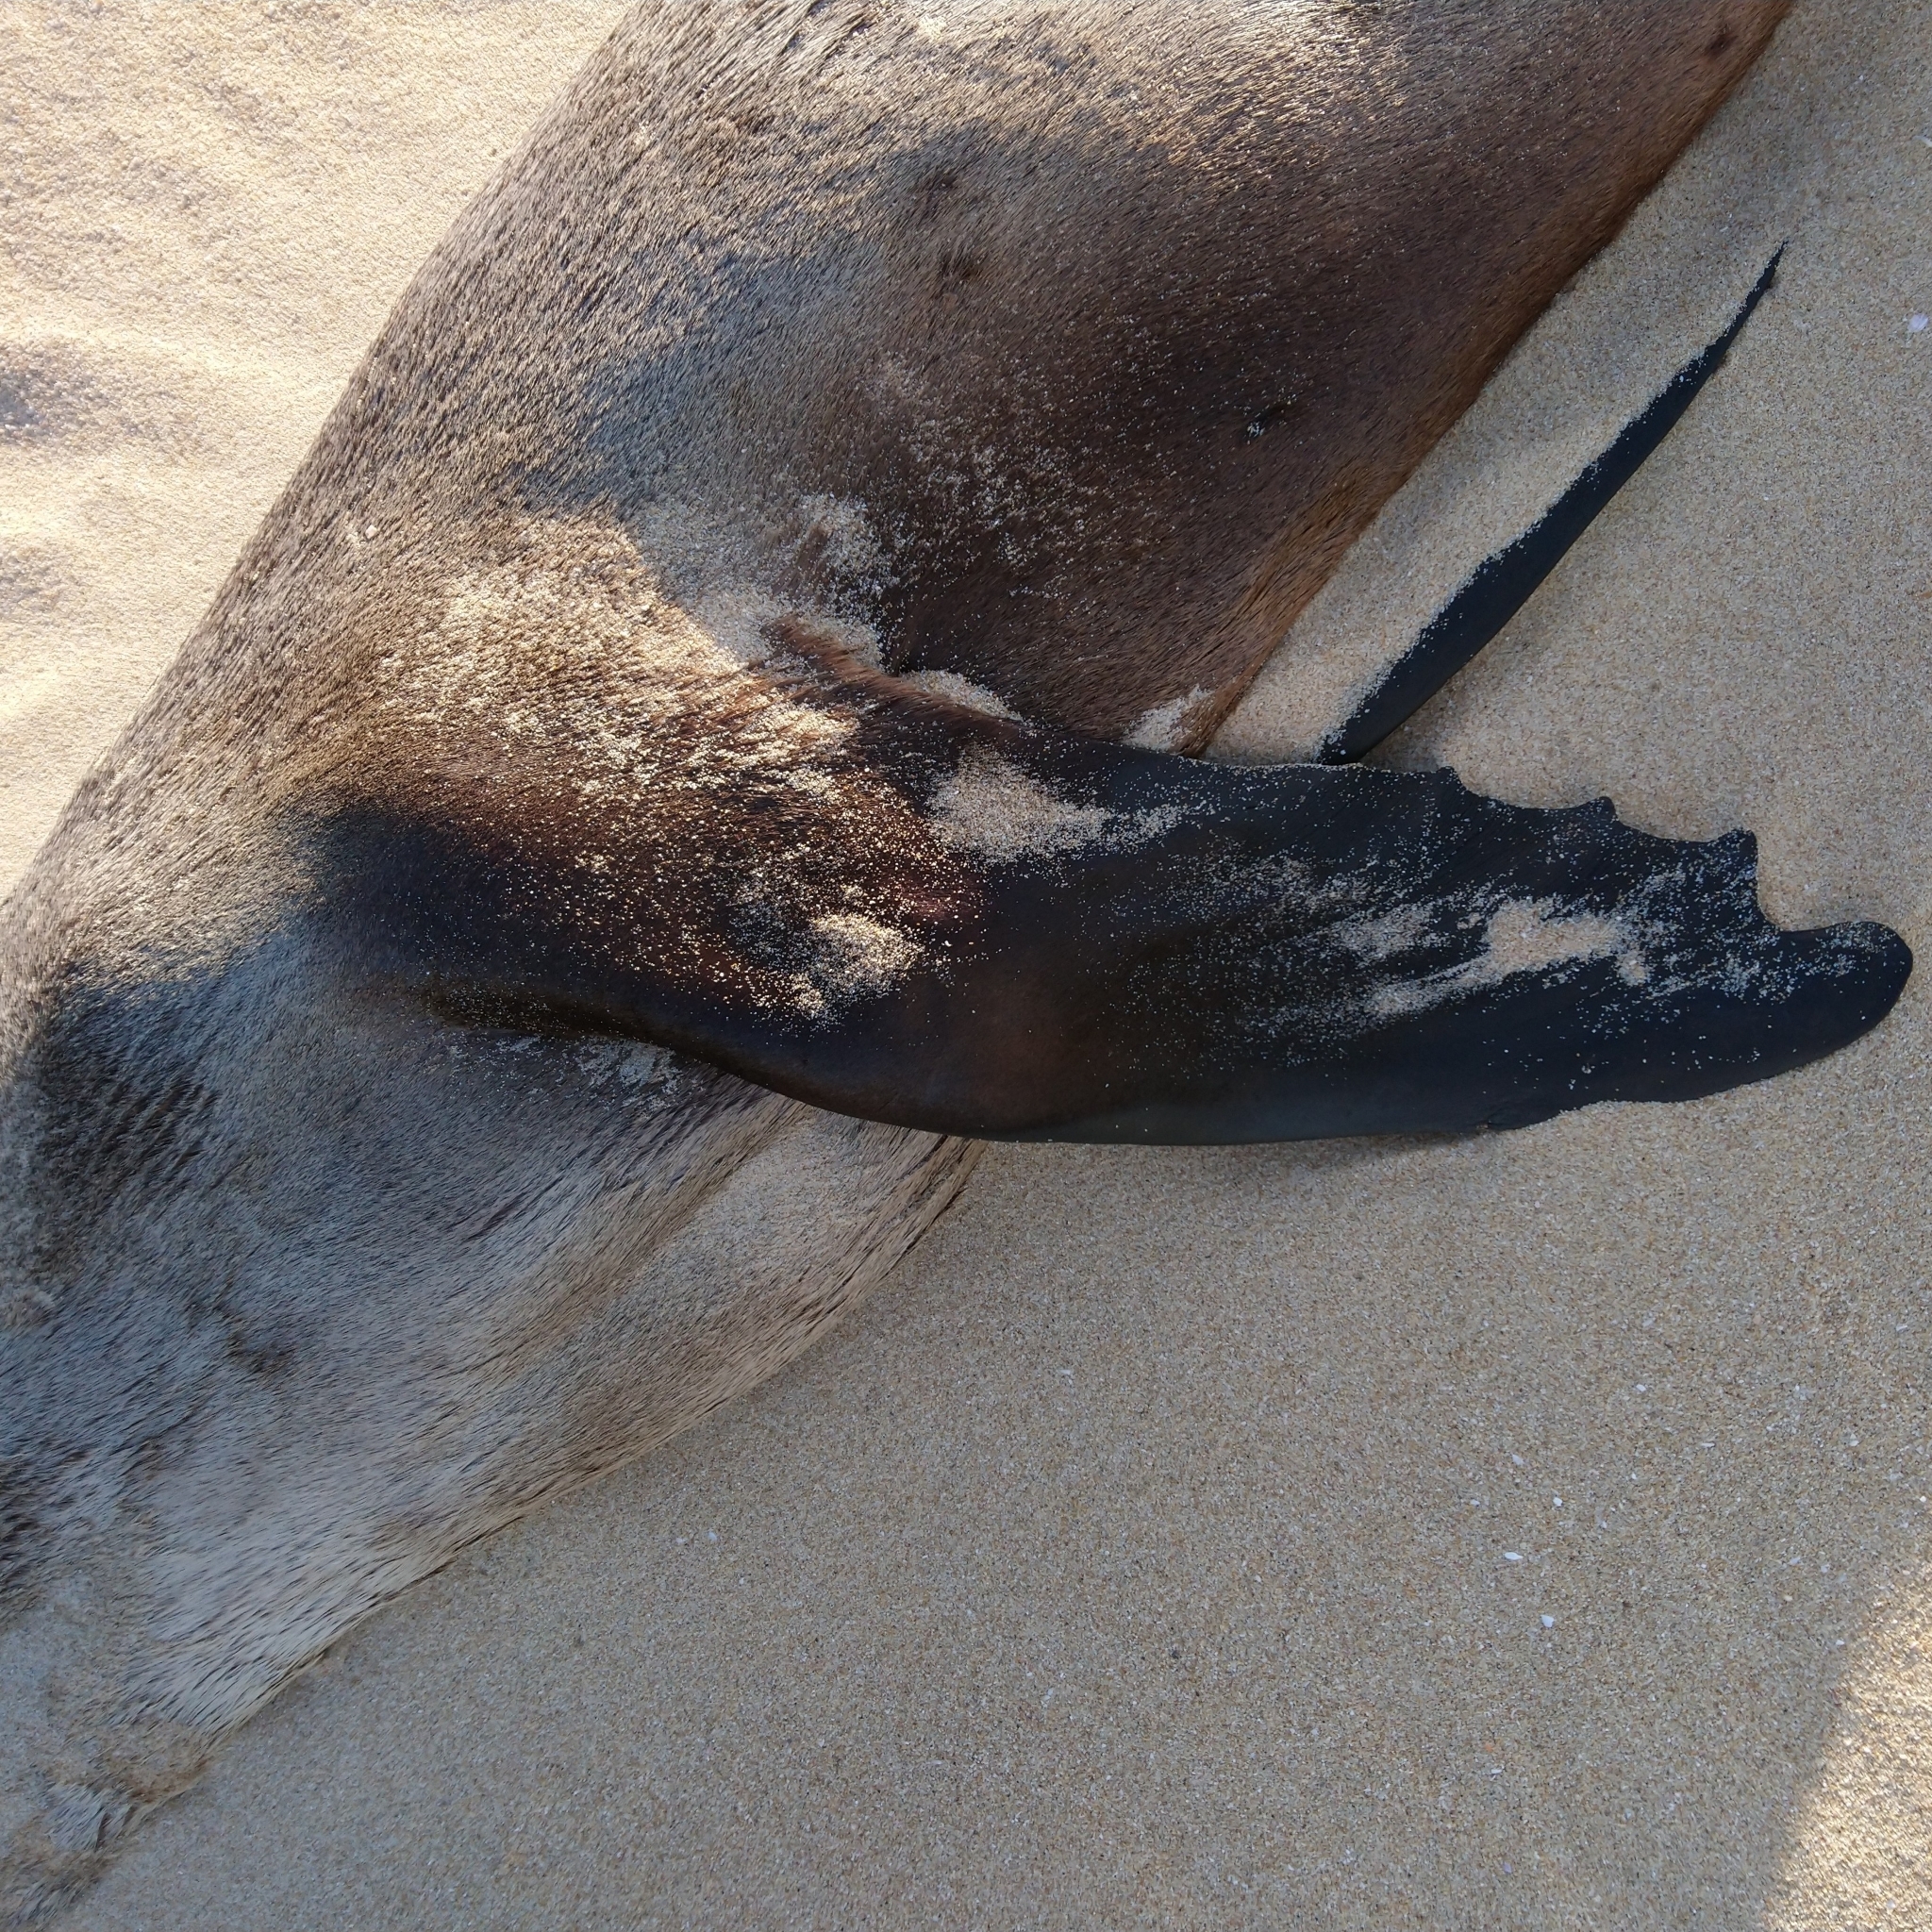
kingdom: Animalia
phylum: Chordata
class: Mammalia
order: Carnivora
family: Otariidae
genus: Arctocephalus
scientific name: Arctocephalus pusillus
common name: Brown fur seal
